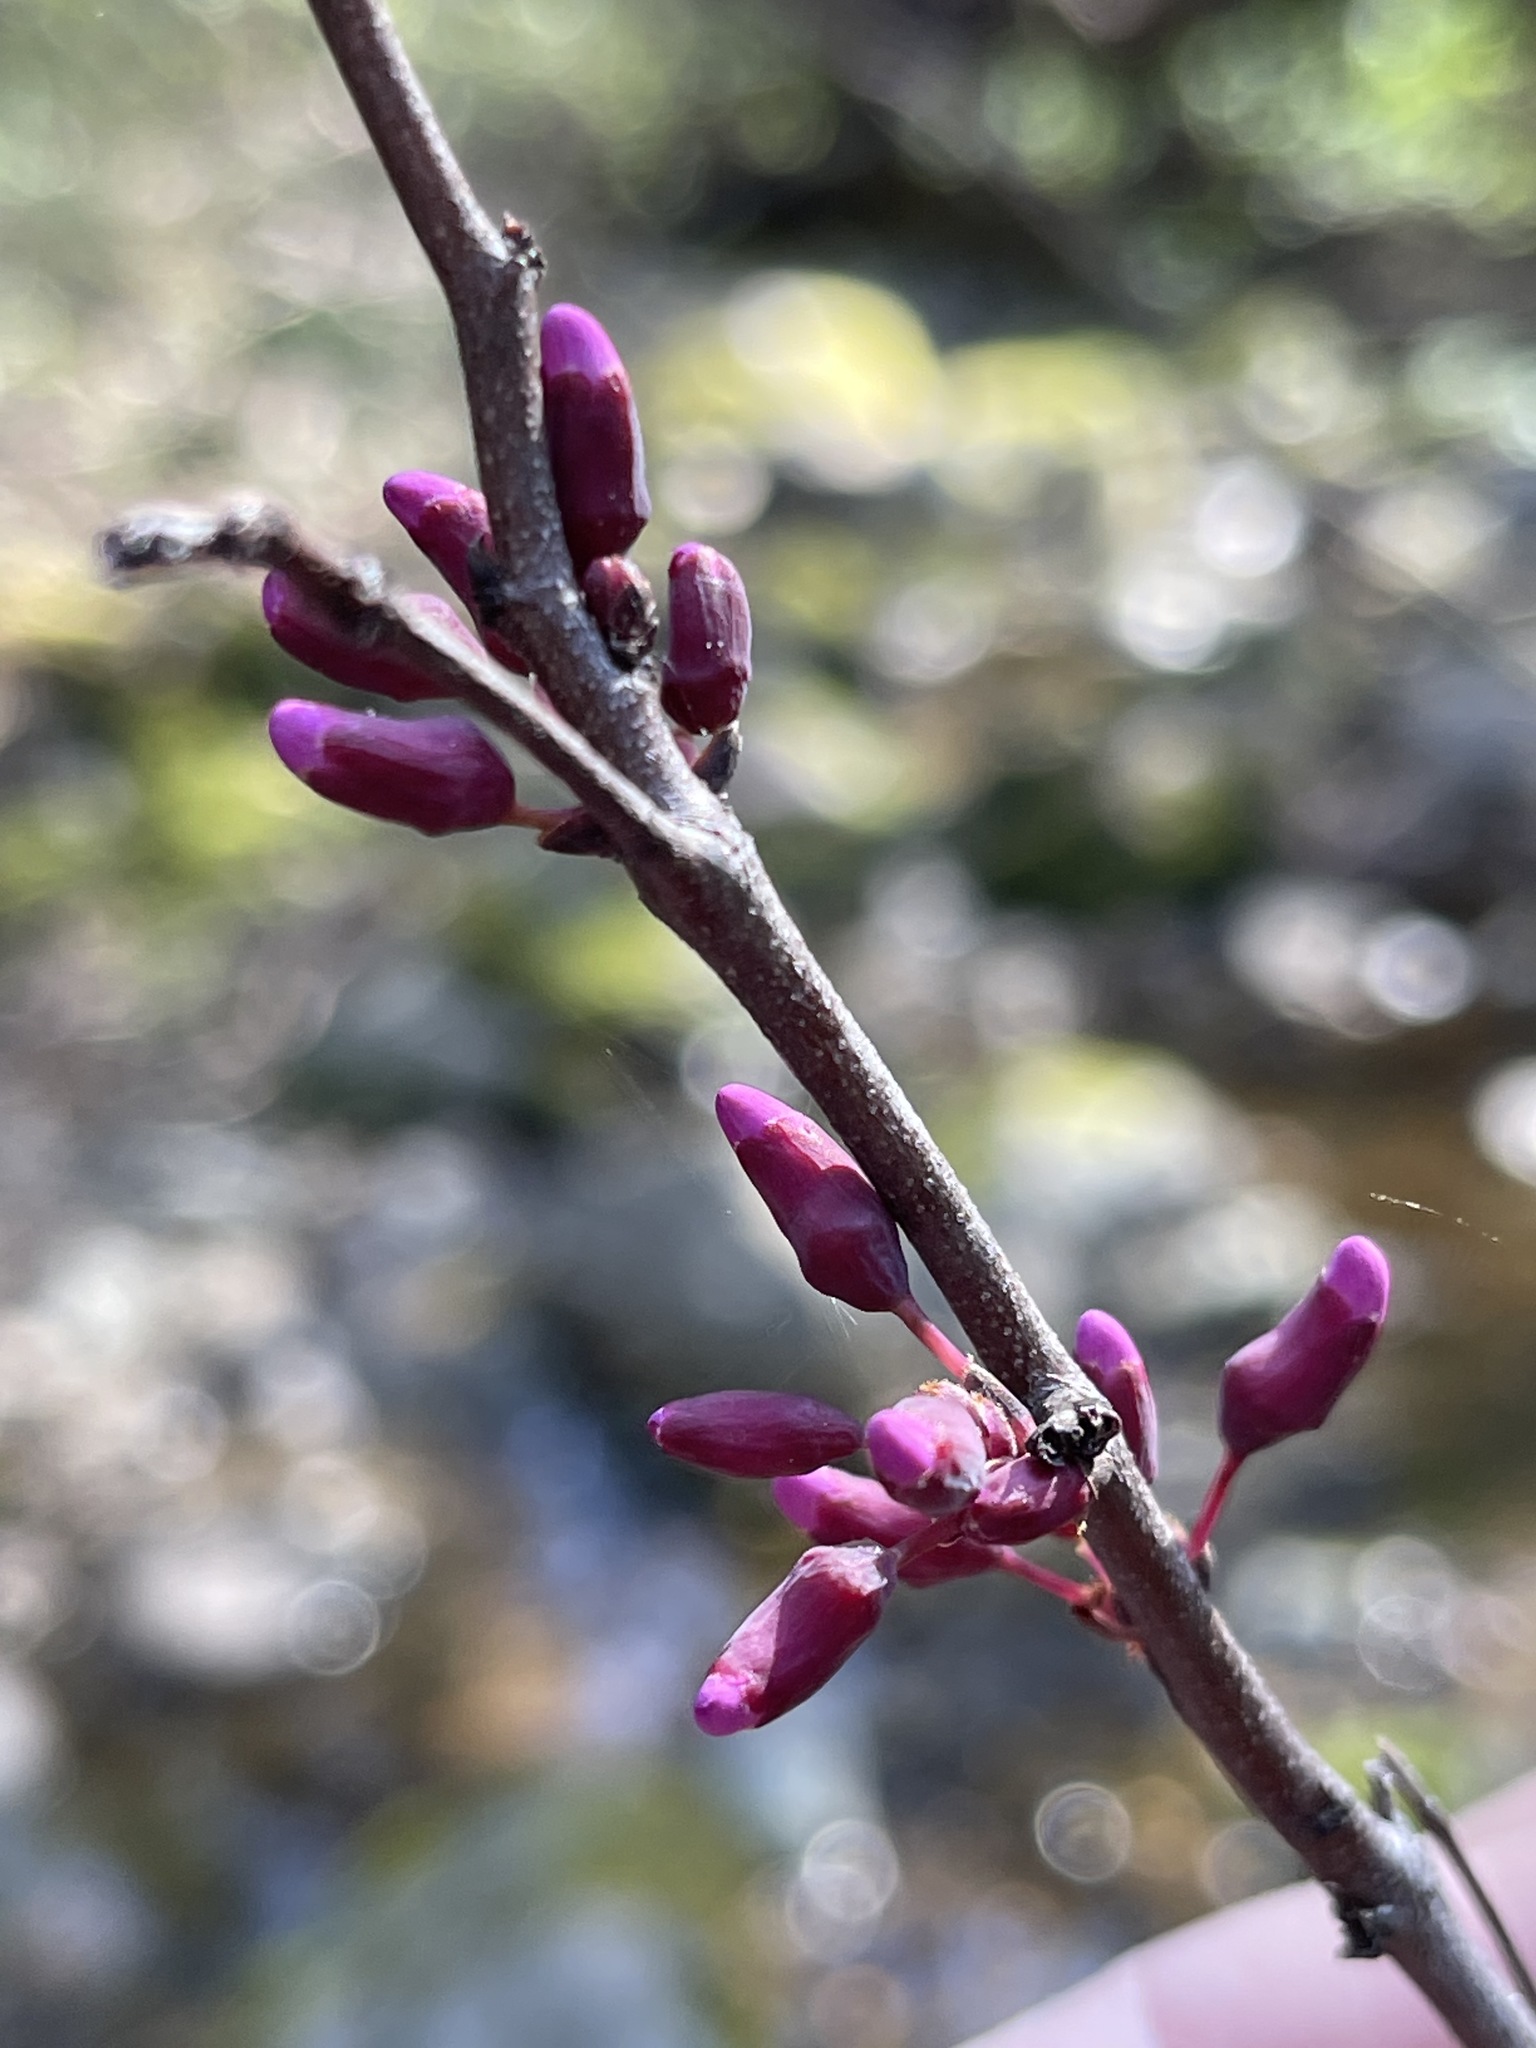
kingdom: Plantae
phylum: Tracheophyta
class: Magnoliopsida
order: Fabales
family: Fabaceae
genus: Cercis
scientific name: Cercis occidentalis
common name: California redbud
